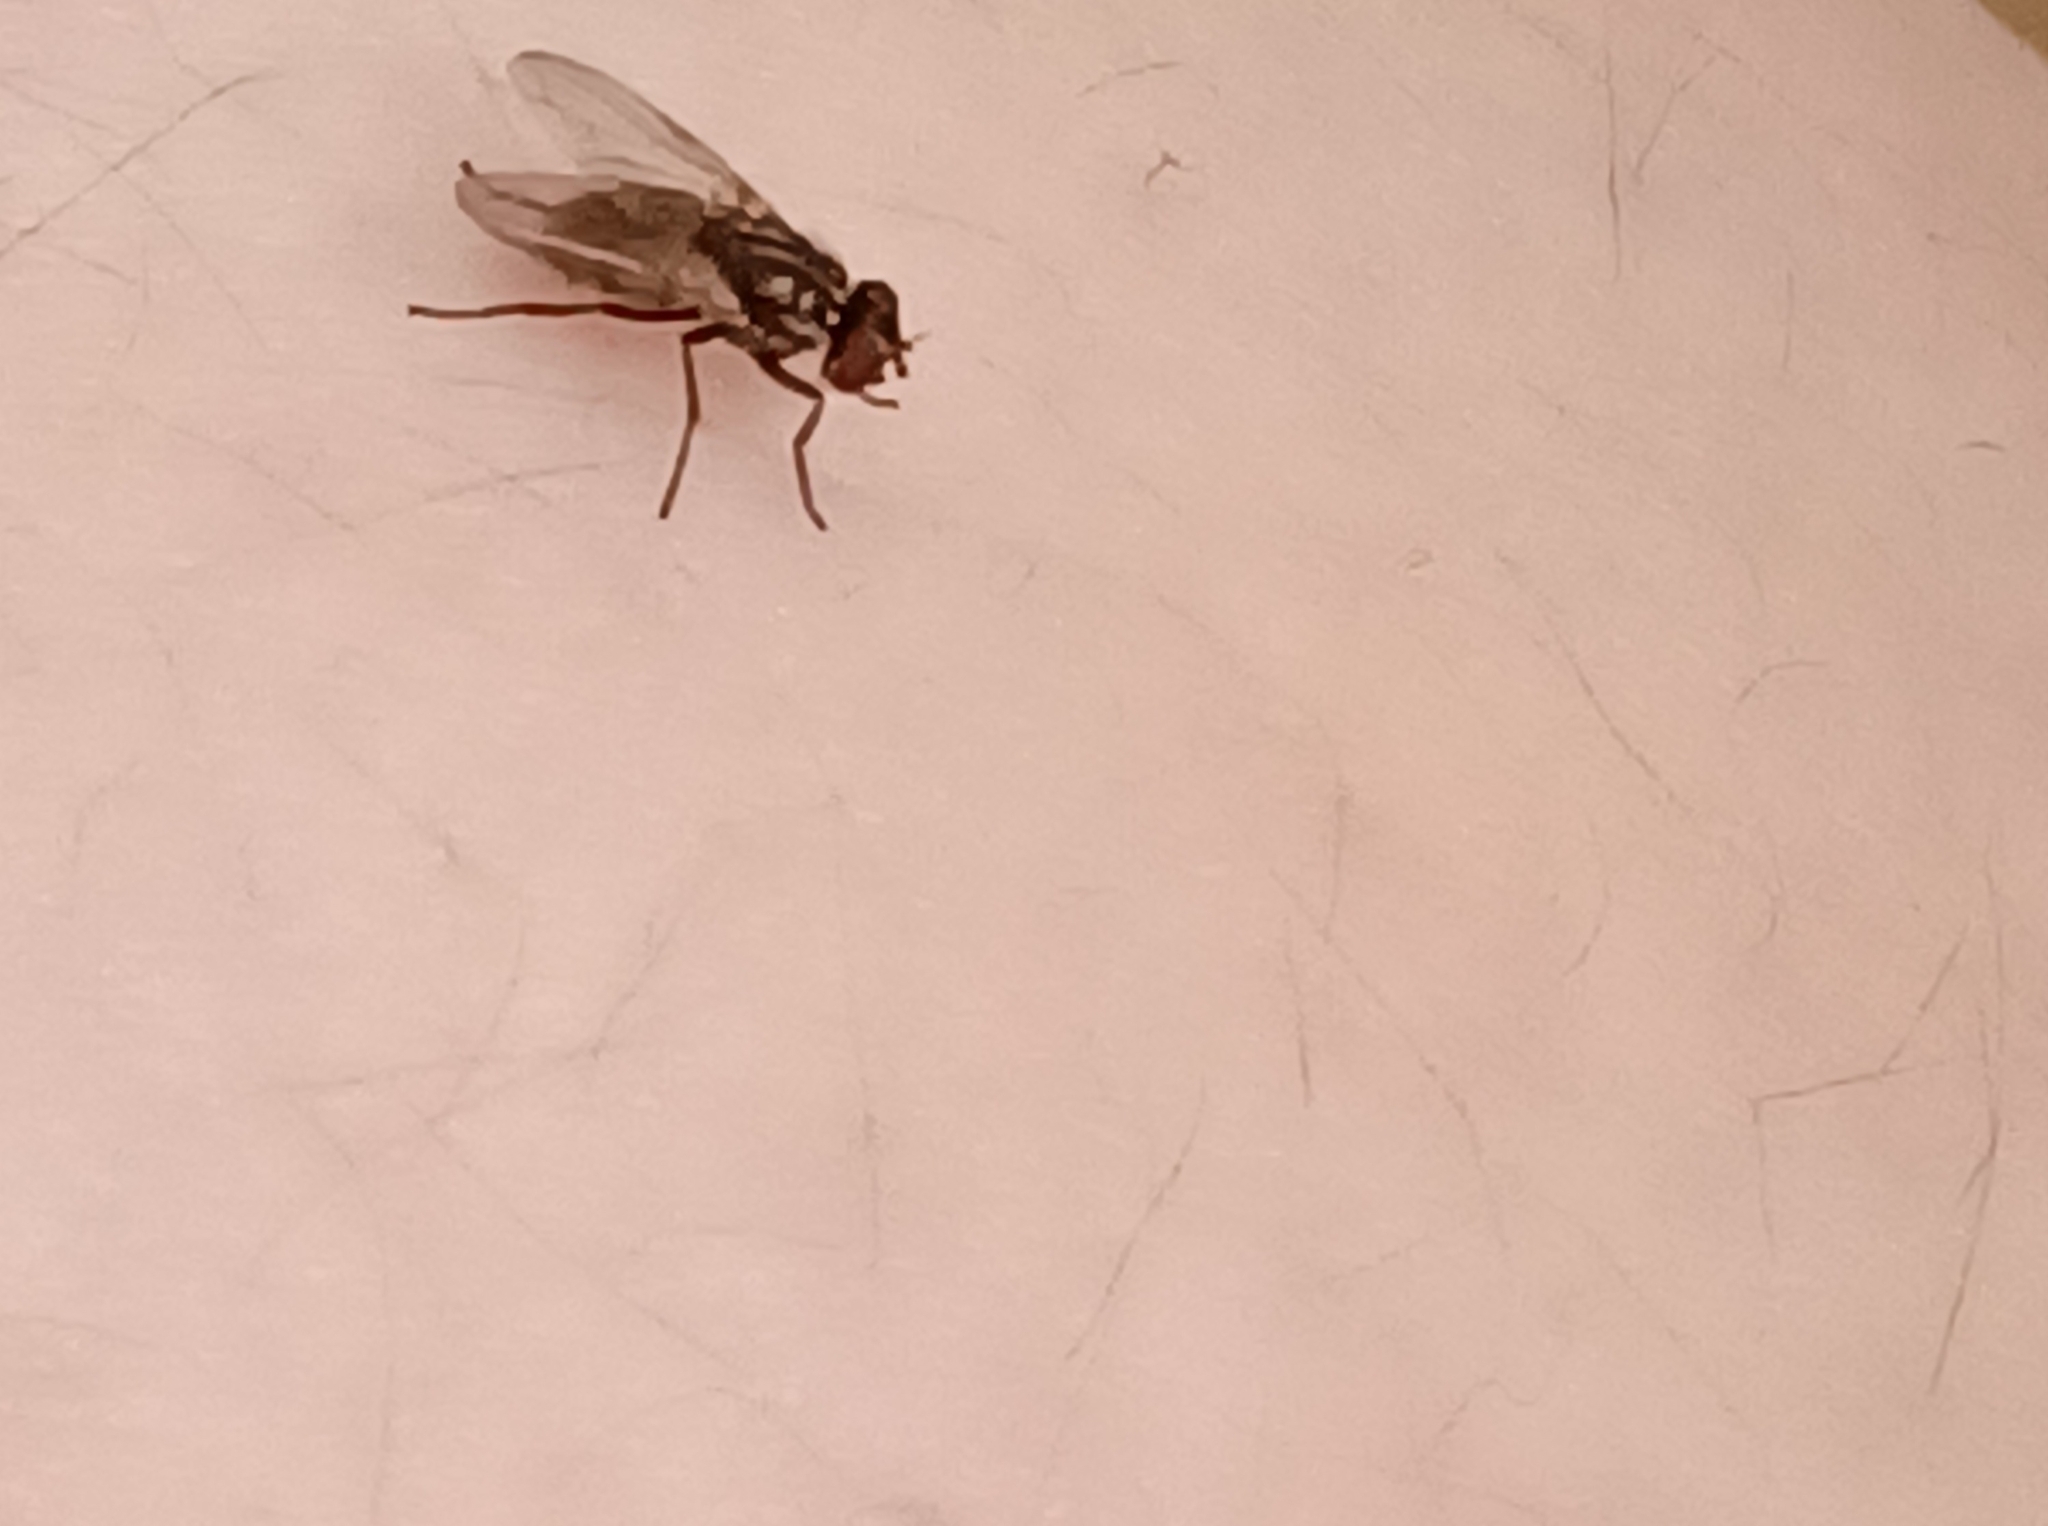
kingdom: Animalia
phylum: Arthropoda
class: Insecta
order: Diptera
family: Muscidae
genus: Musca
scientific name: Musca domestica
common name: House fly
